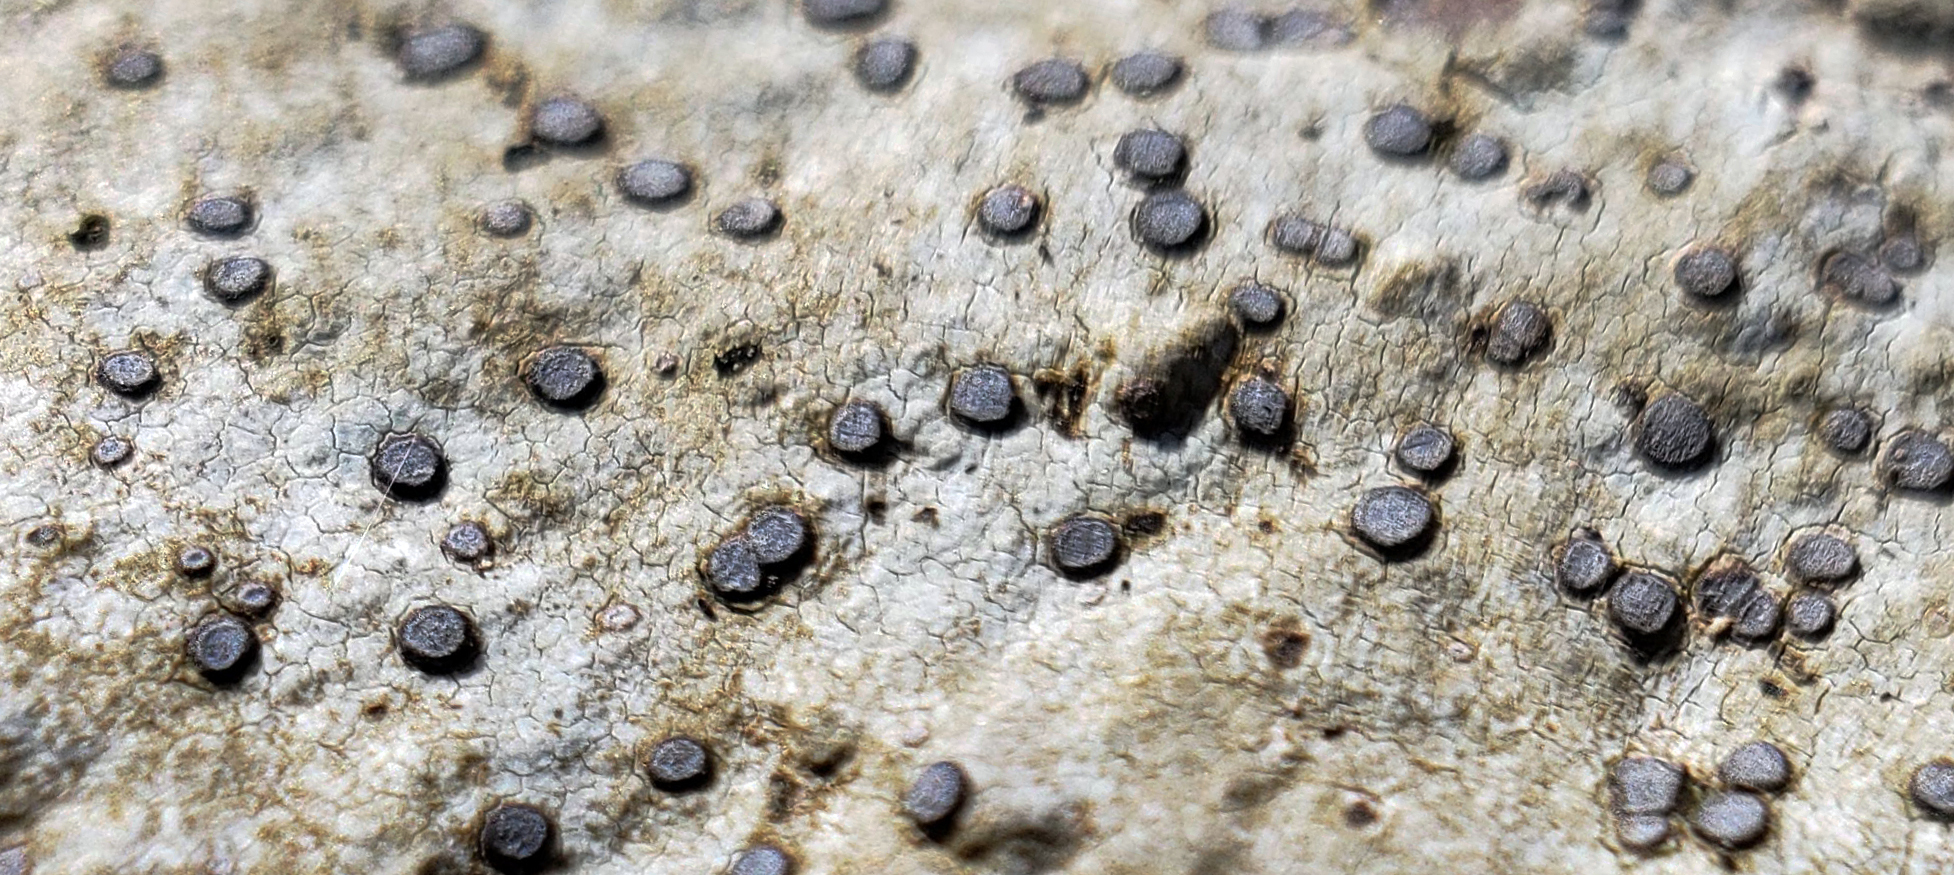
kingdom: Fungi
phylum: Ascomycota
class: Lecanoromycetes
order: Lecideales
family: Lecideaceae
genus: Porpidia
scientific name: Porpidia albocaerulescens
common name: Smokey-eyed boulder lichen
